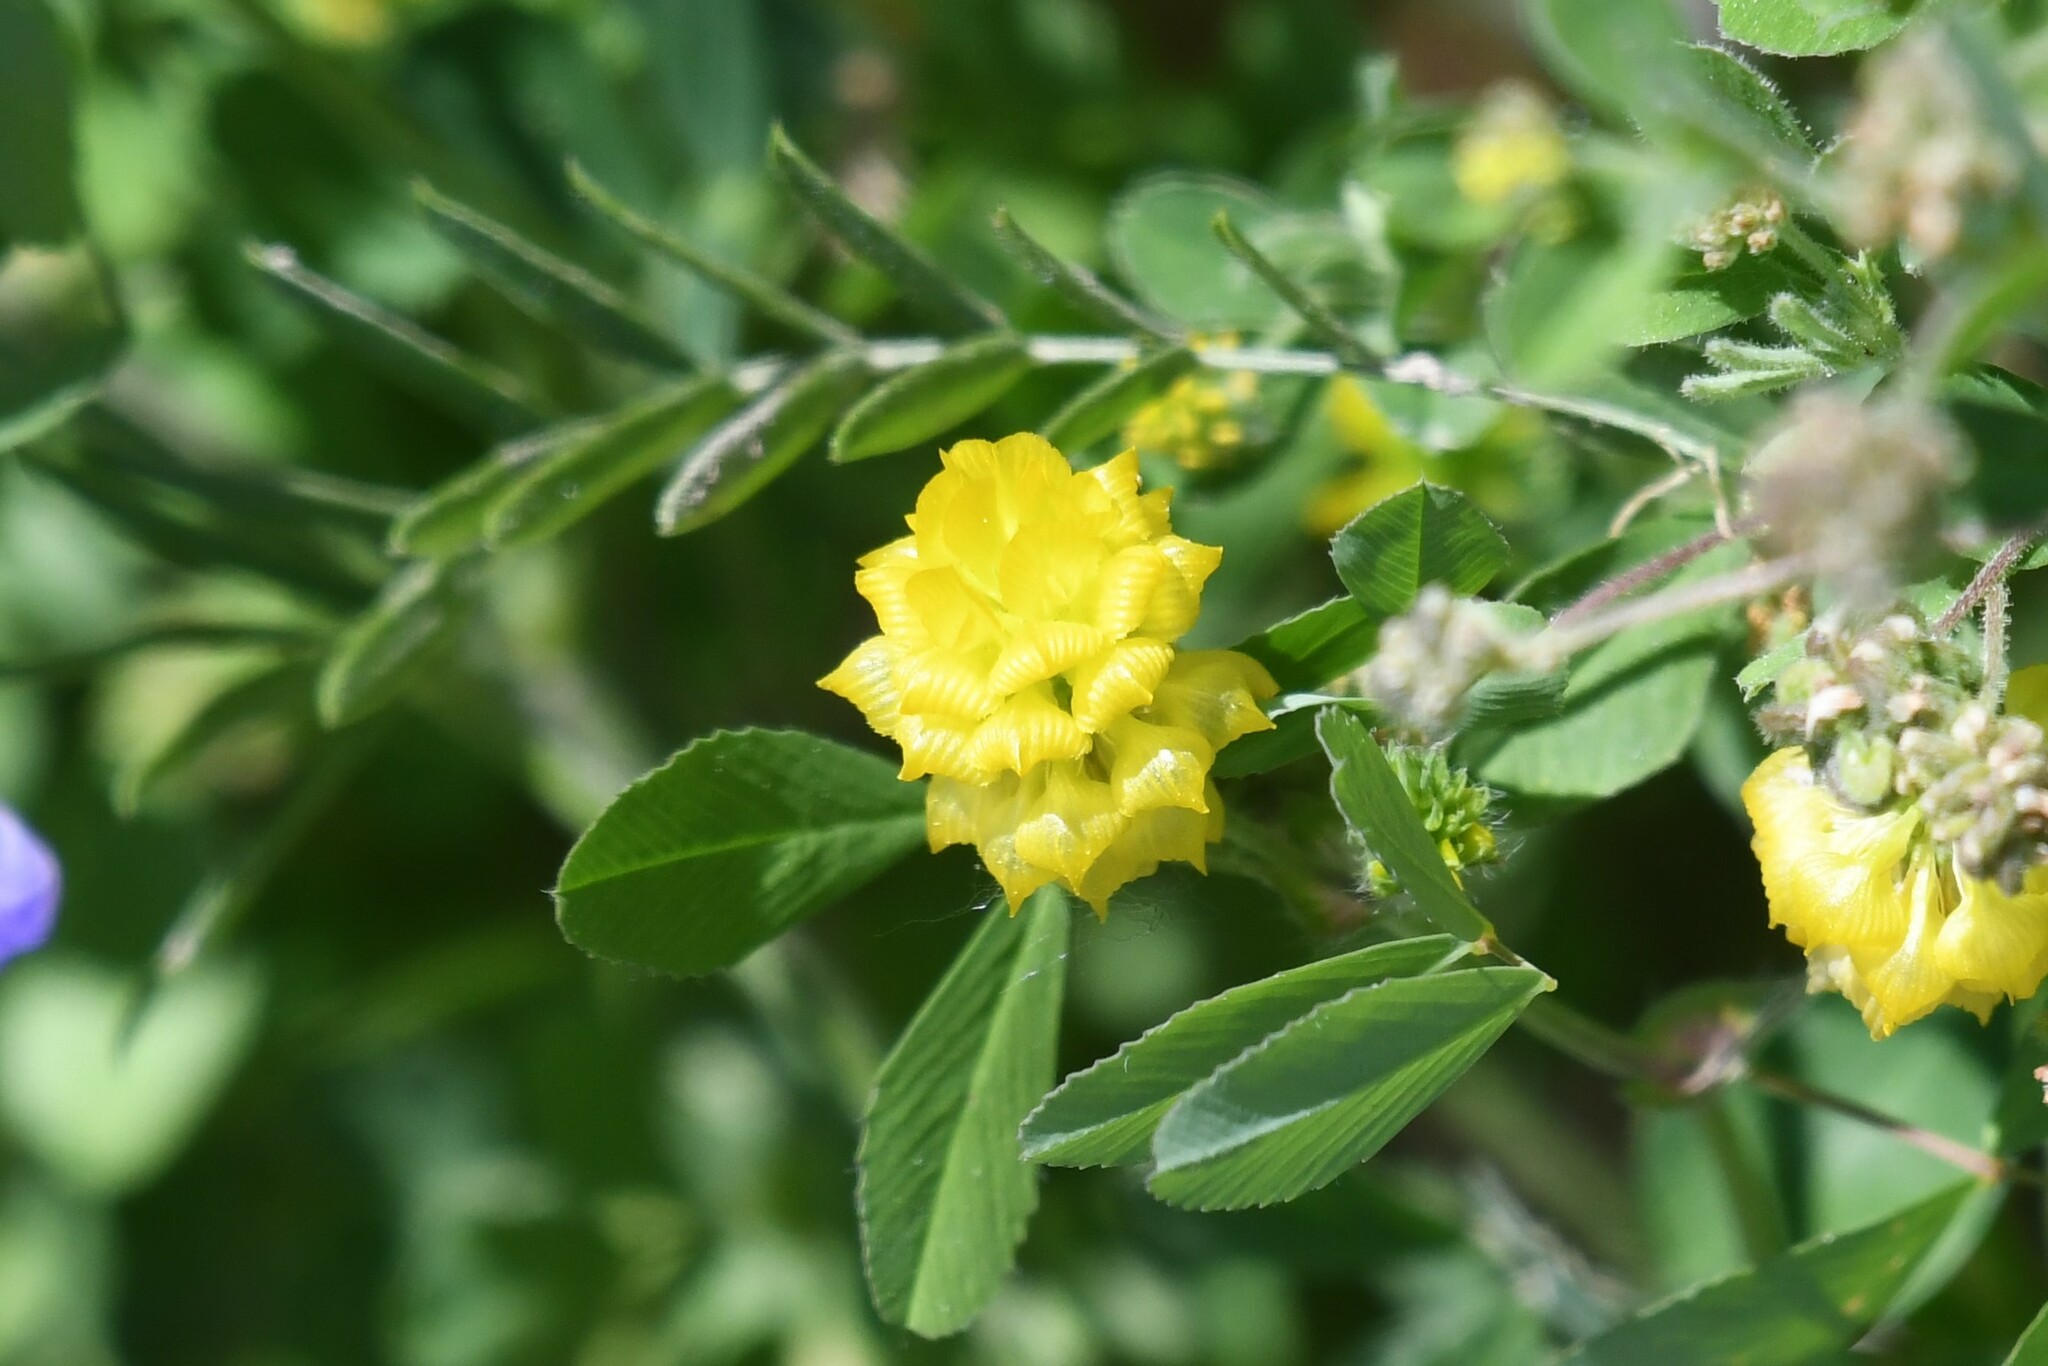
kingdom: Plantae
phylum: Tracheophyta
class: Magnoliopsida
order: Fabales
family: Fabaceae
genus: Trifolium
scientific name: Trifolium campestre
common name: Field clover
